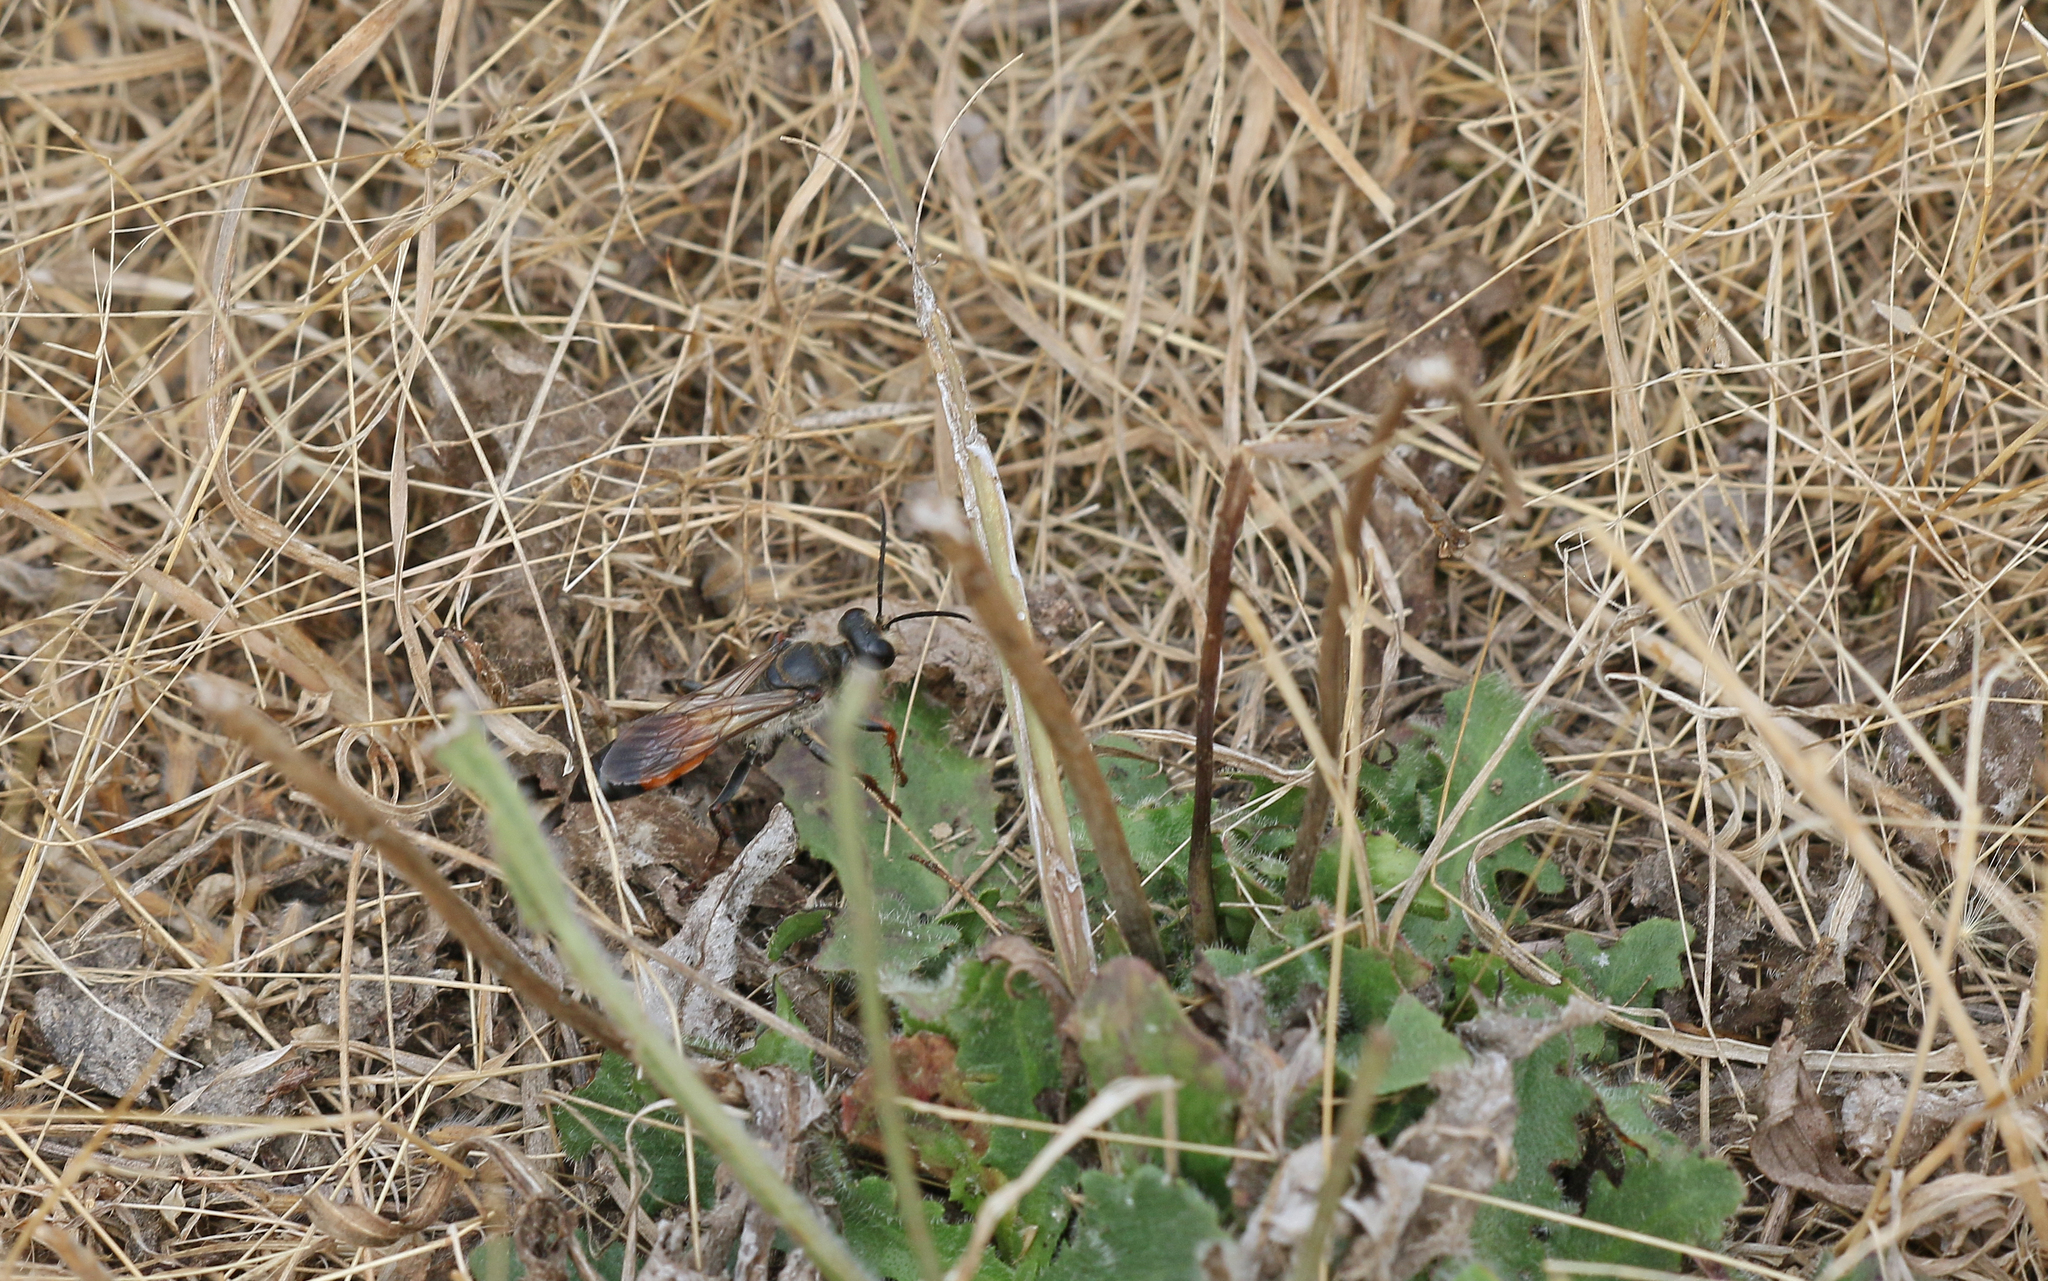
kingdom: Animalia
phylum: Arthropoda
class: Insecta
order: Hymenoptera
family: Sphecidae
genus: Sphex
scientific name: Sphex funerarius
